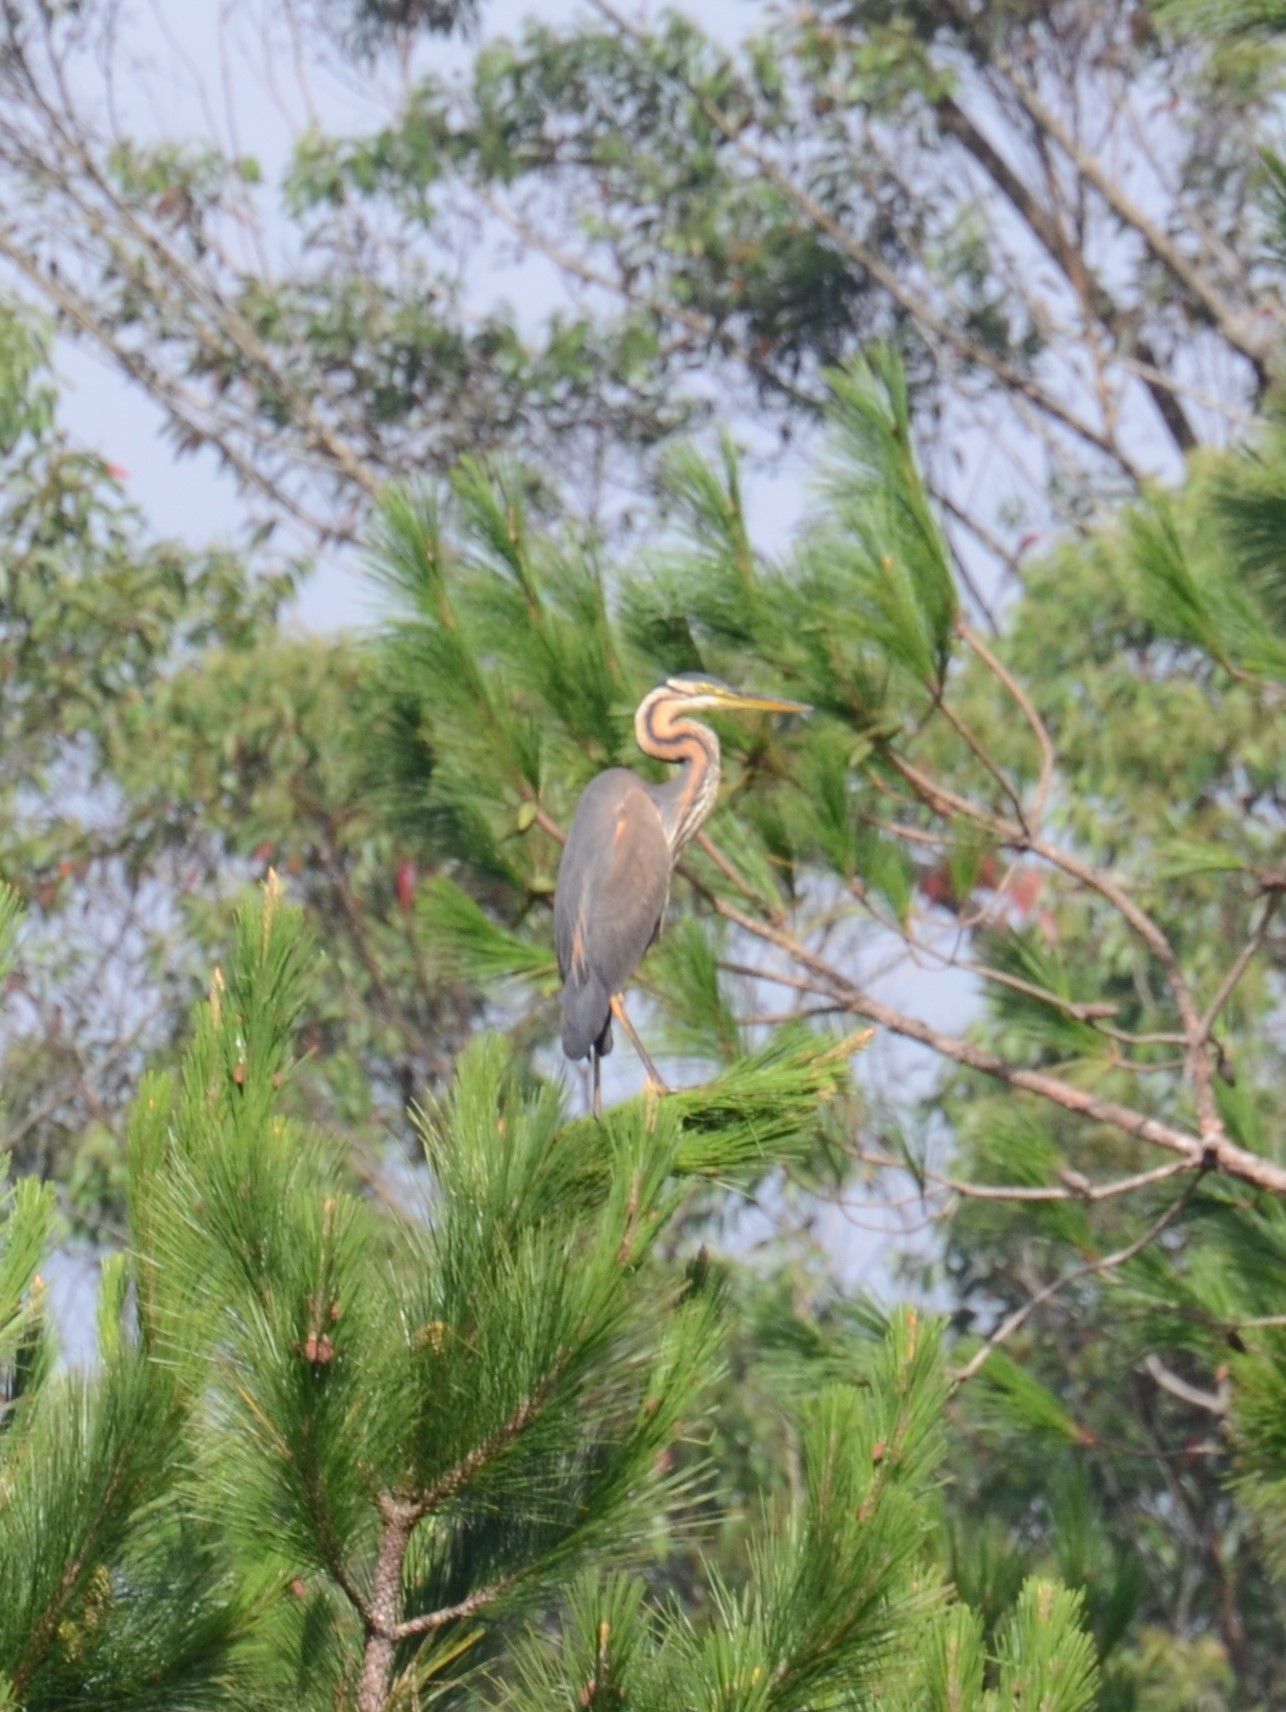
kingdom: Animalia
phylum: Chordata
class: Aves
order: Pelecaniformes
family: Ardeidae
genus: Ardea
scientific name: Ardea purpurea
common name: Purple heron
